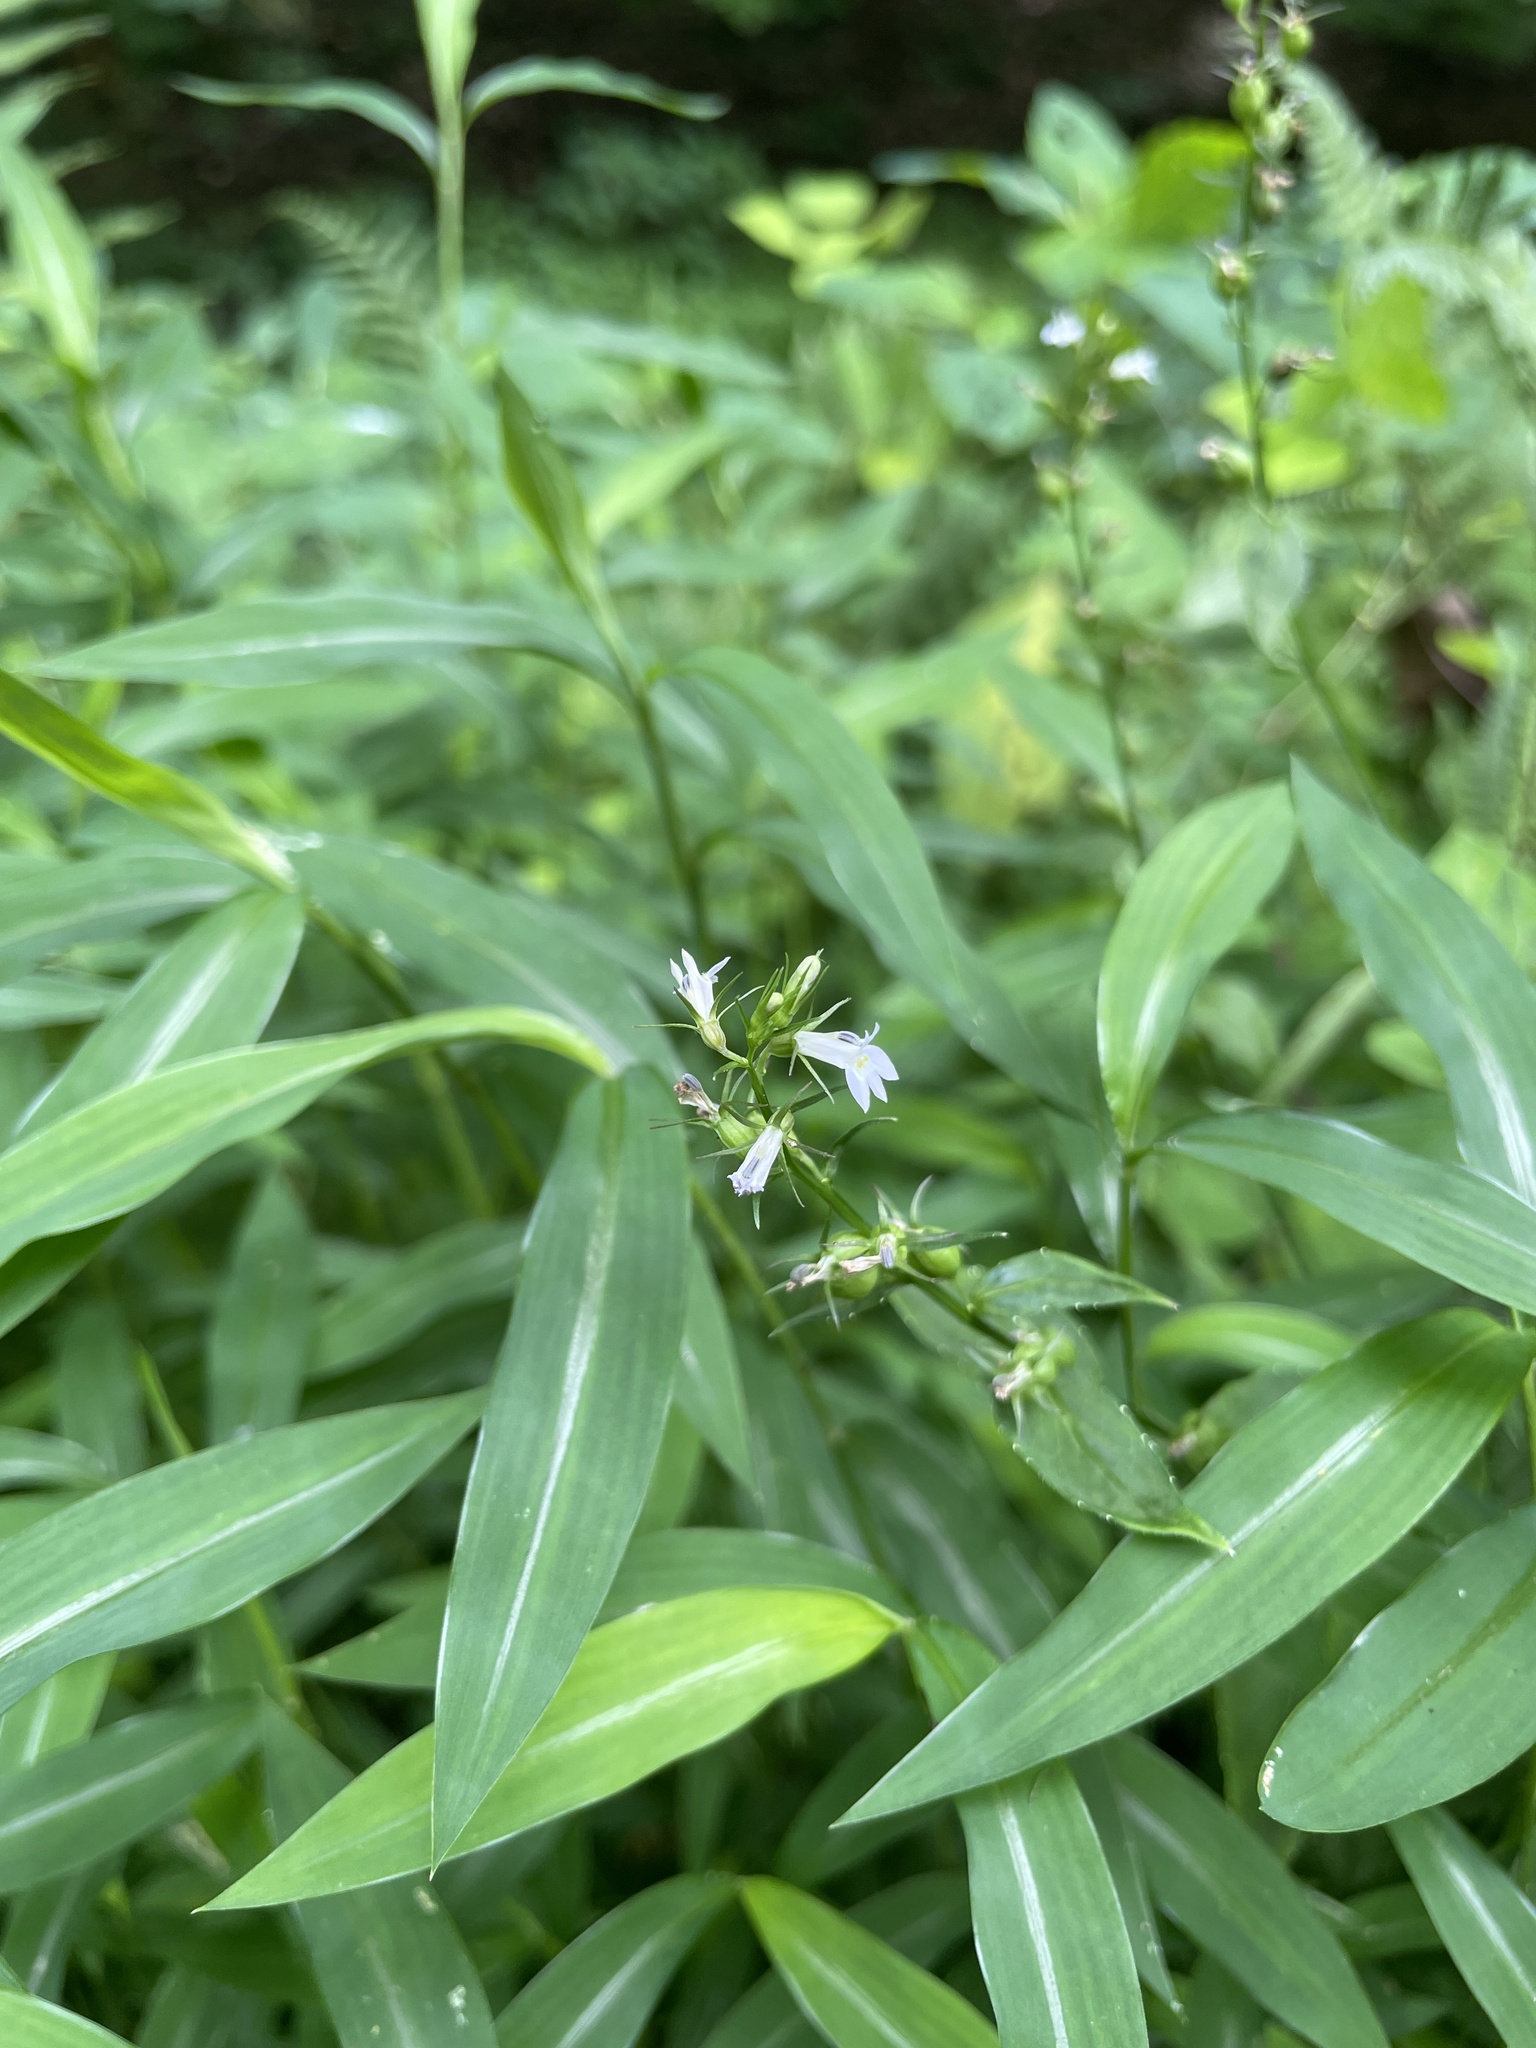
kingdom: Plantae
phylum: Tracheophyta
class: Magnoliopsida
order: Asterales
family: Campanulaceae
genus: Lobelia
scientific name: Lobelia inflata
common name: Indian tobacco
